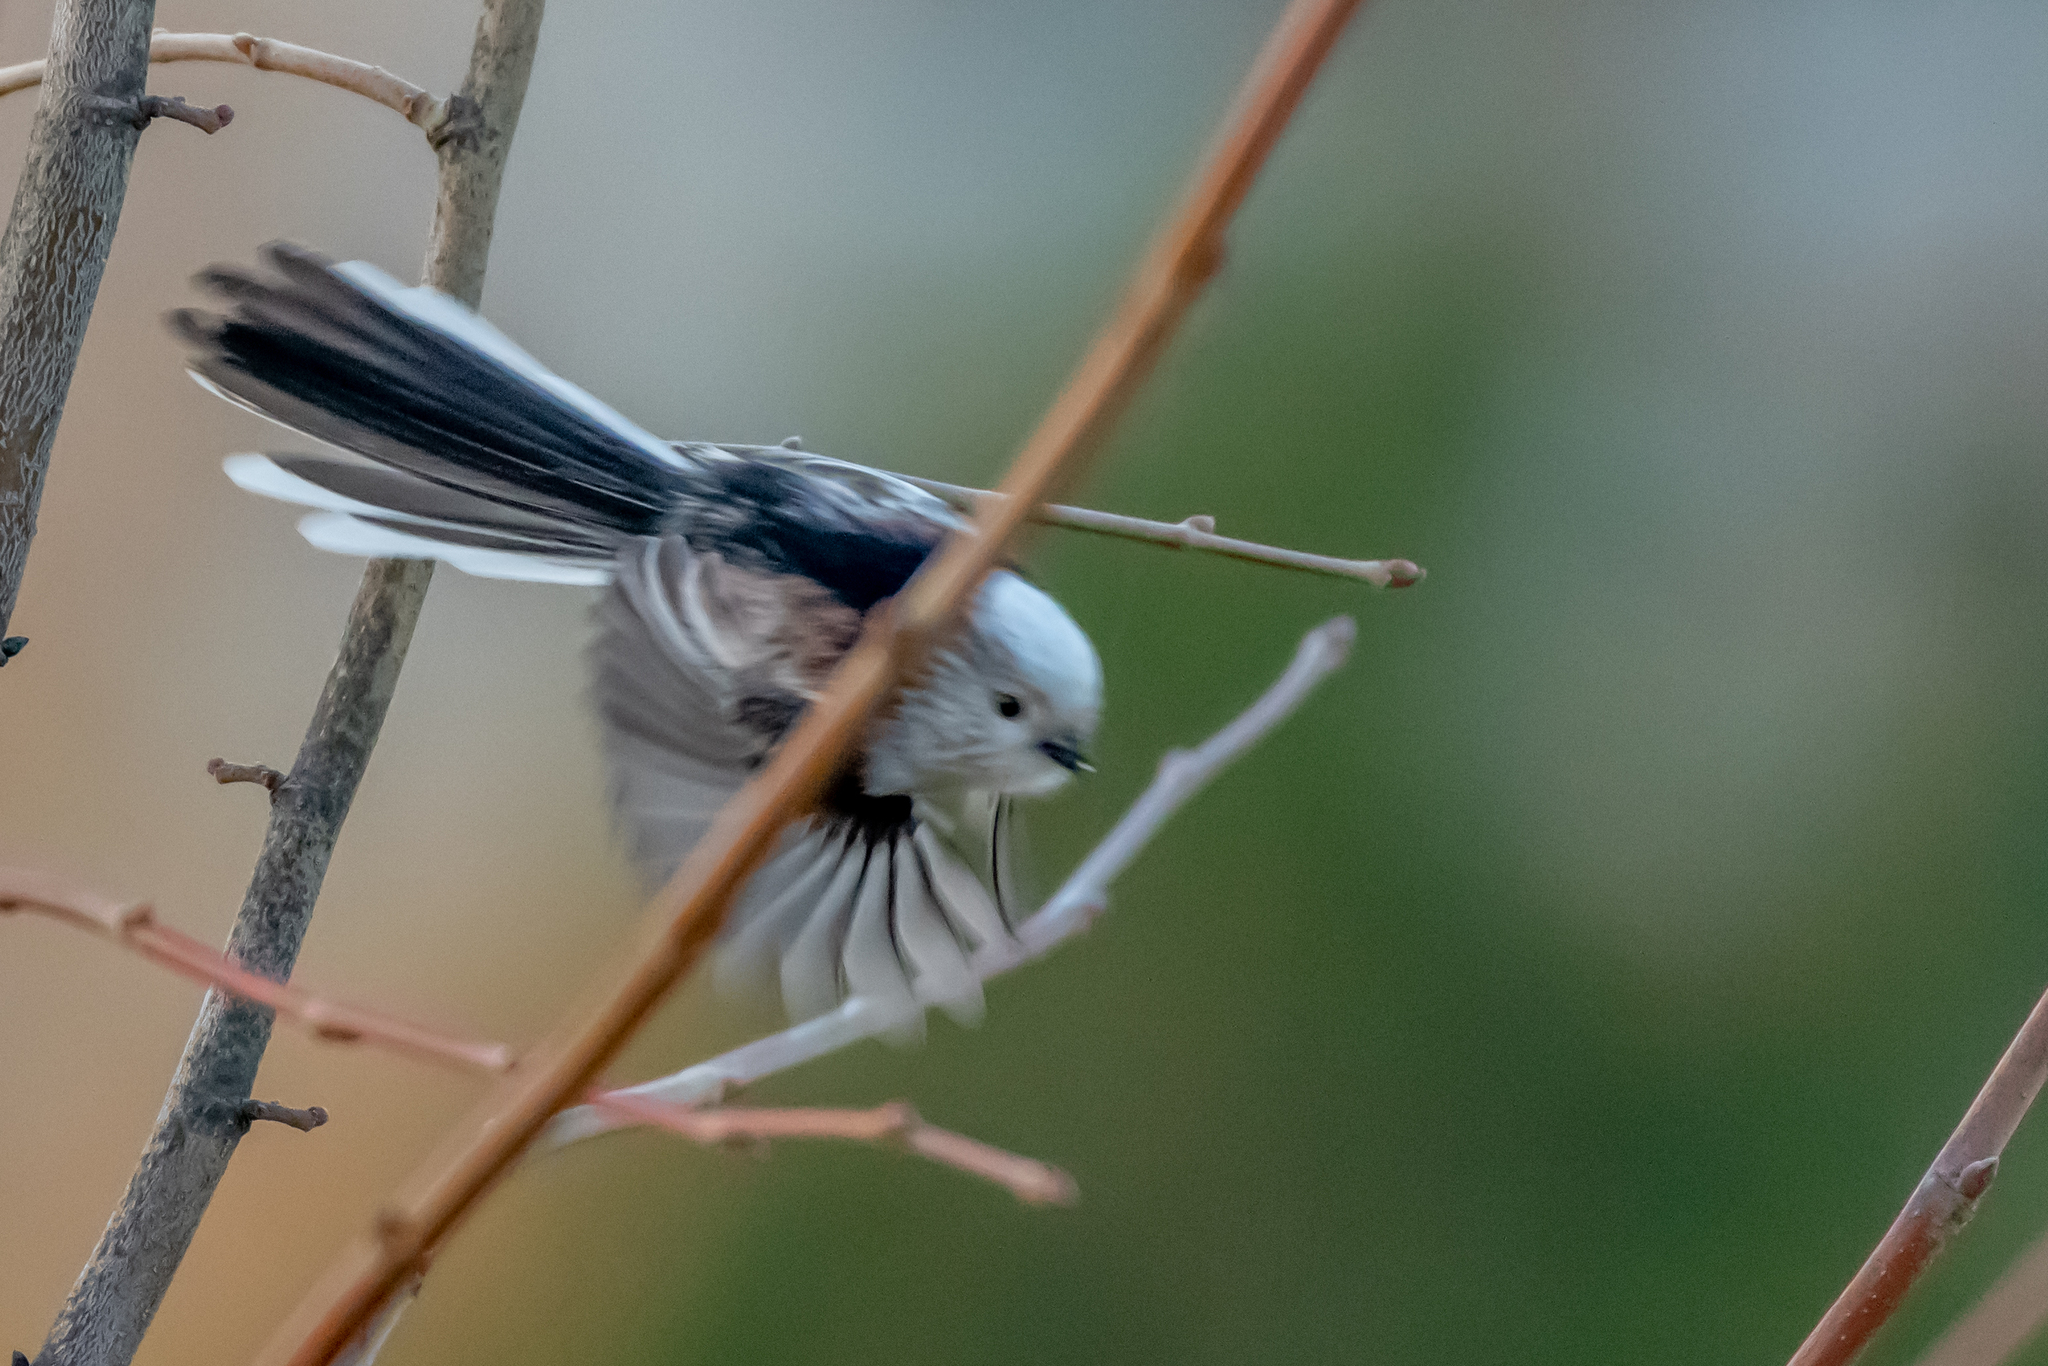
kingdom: Animalia
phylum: Chordata
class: Aves
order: Passeriformes
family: Aegithalidae
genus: Aegithalos
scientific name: Aegithalos caudatus
